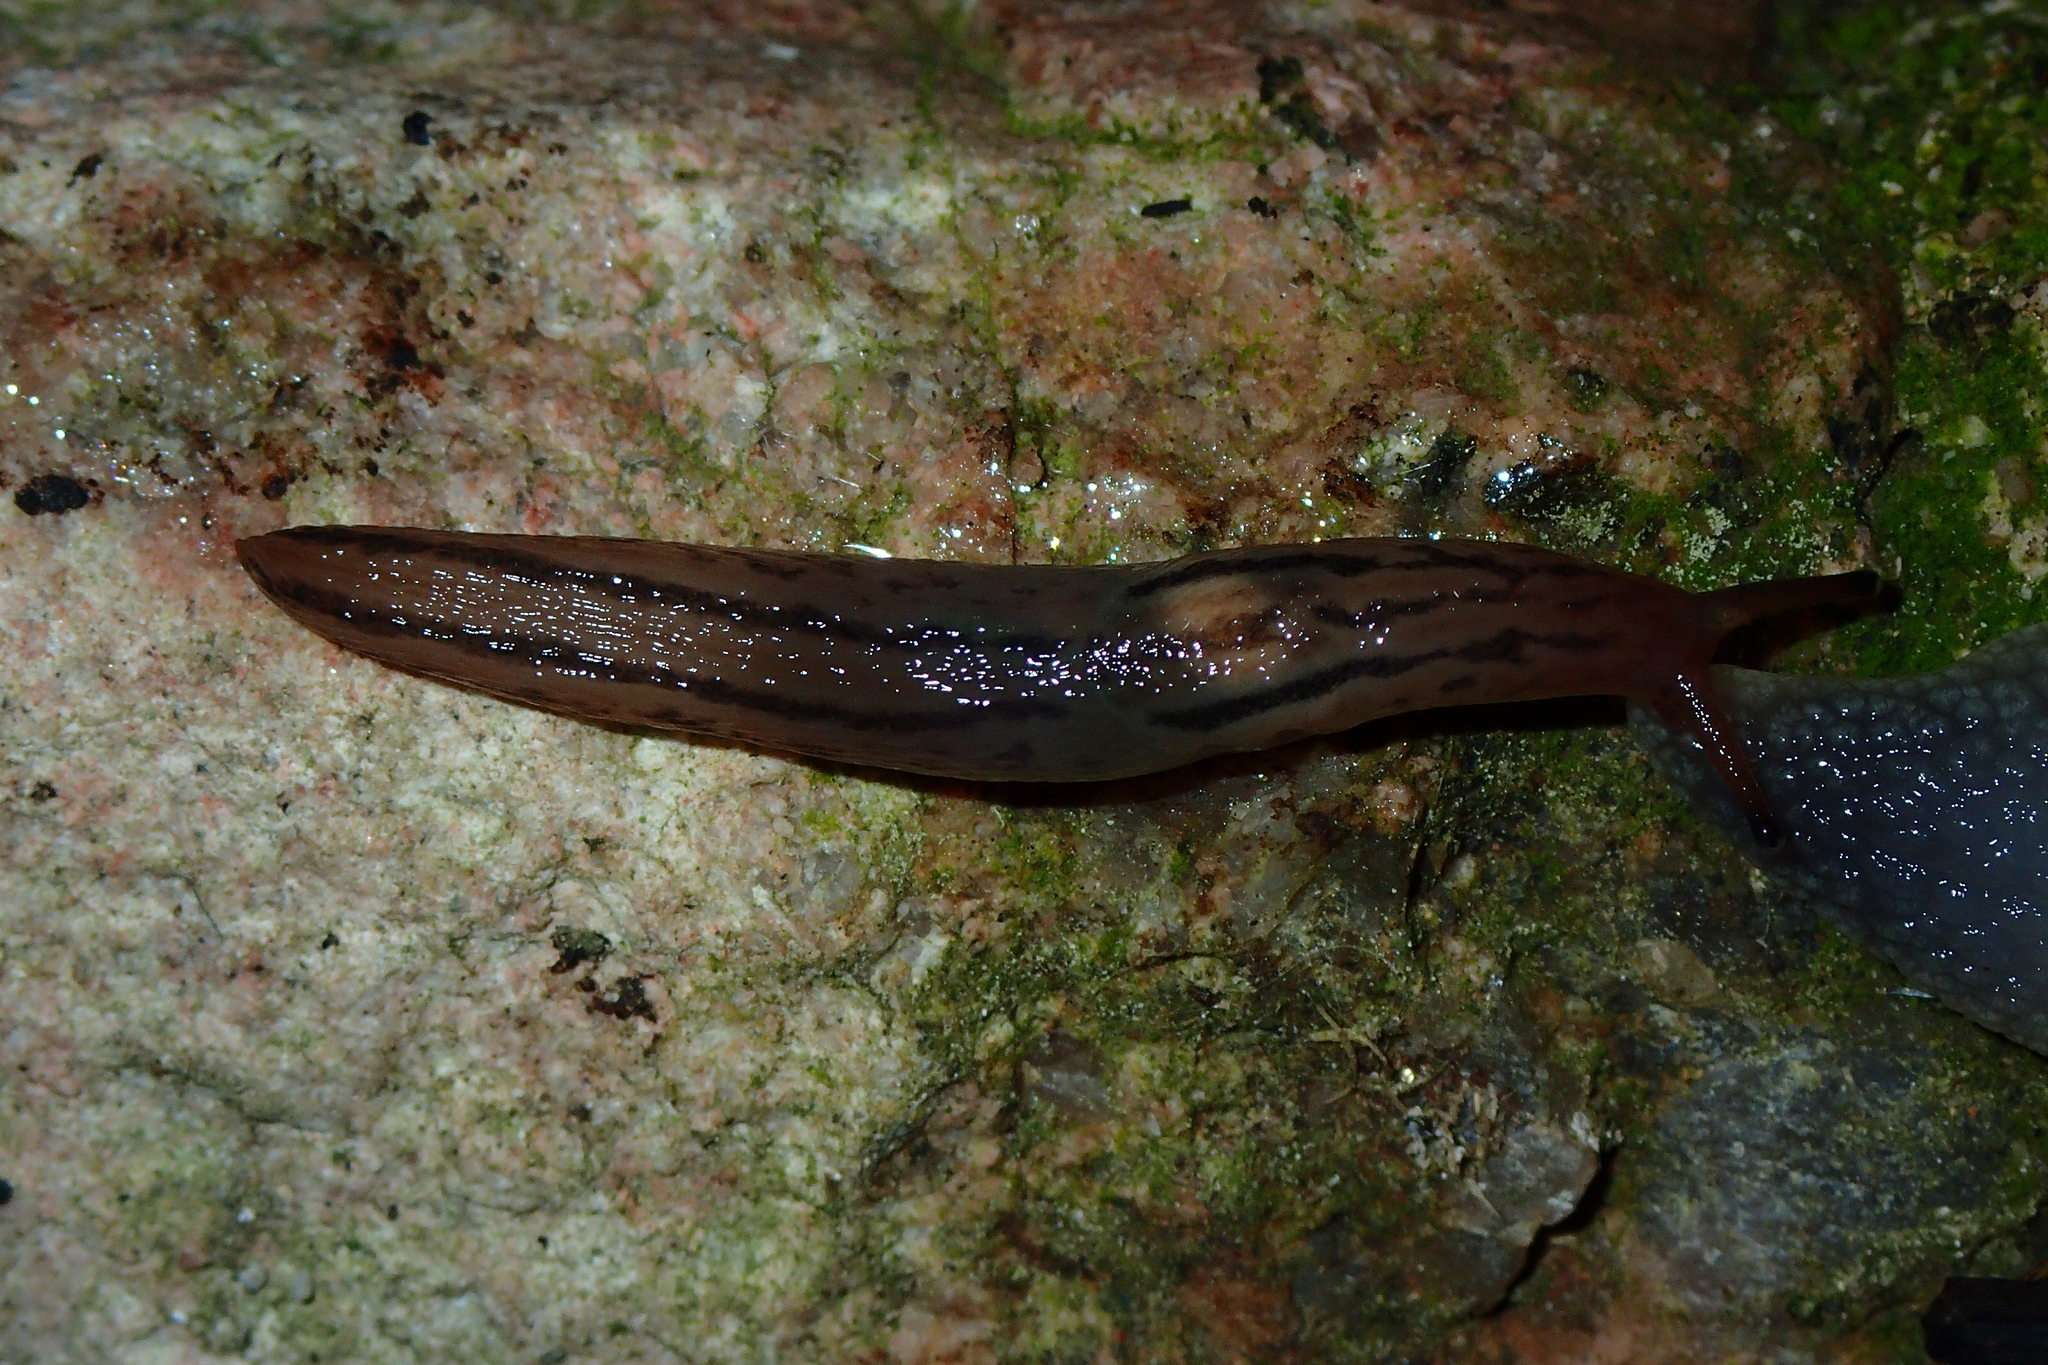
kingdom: Animalia
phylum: Mollusca
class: Gastropoda
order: Stylommatophora
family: Limacidae
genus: Ambigolimax
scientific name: Ambigolimax valentianus
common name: Greenhouse slug
